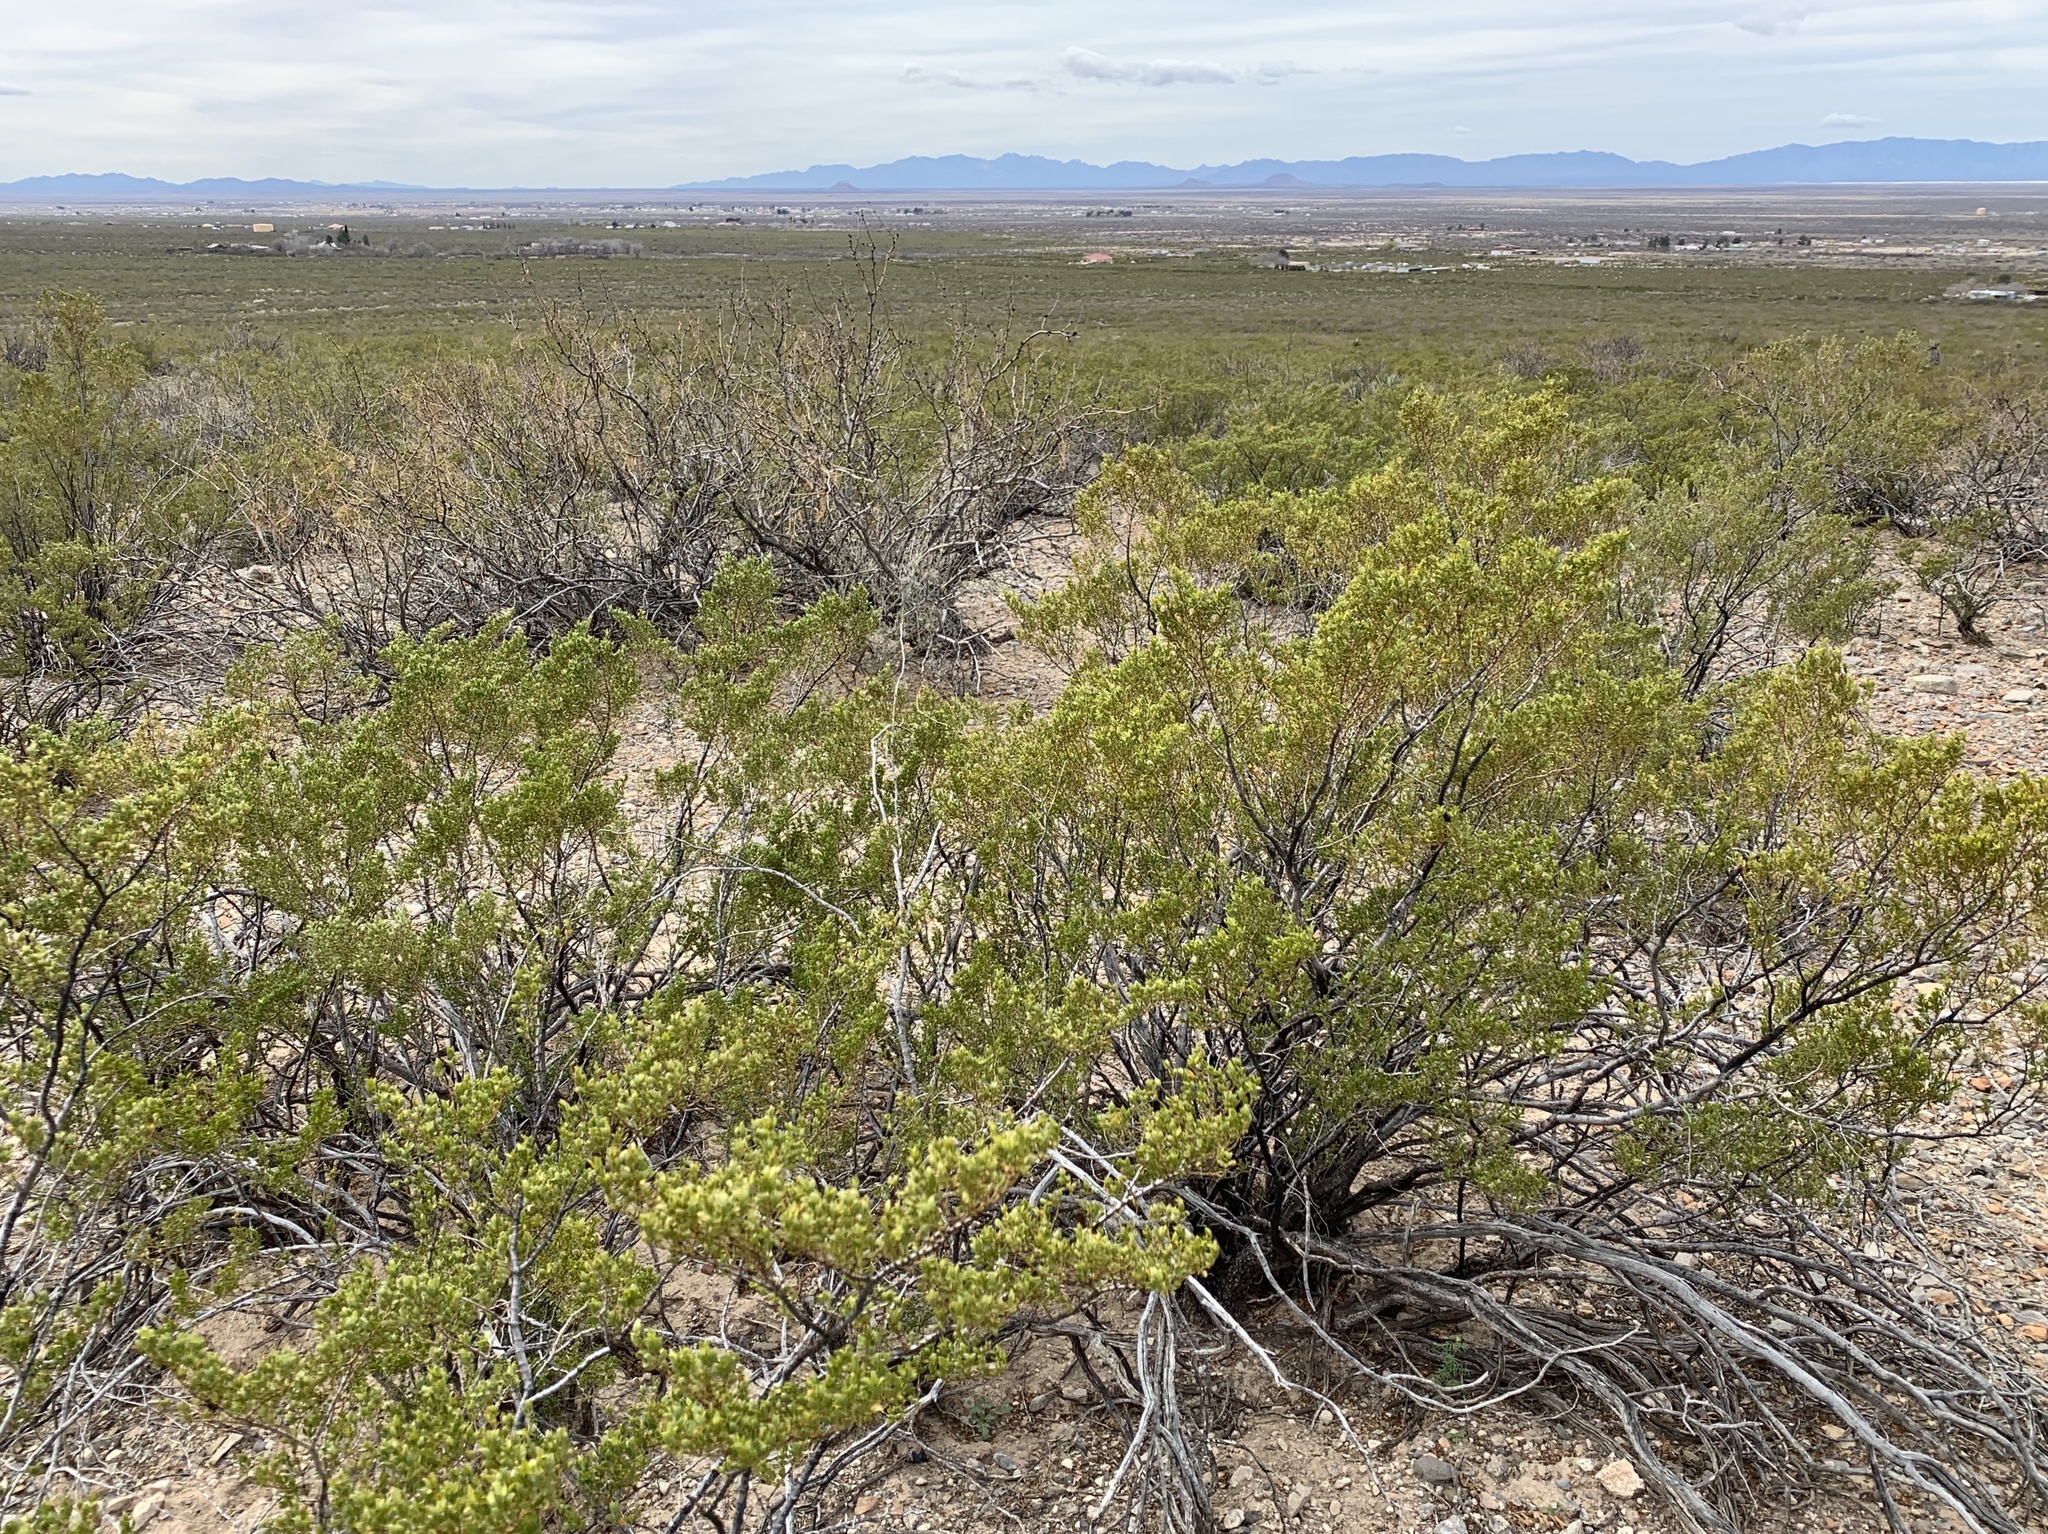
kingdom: Plantae
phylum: Tracheophyta
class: Magnoliopsida
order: Zygophyllales
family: Zygophyllaceae
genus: Larrea
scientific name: Larrea tridentata
